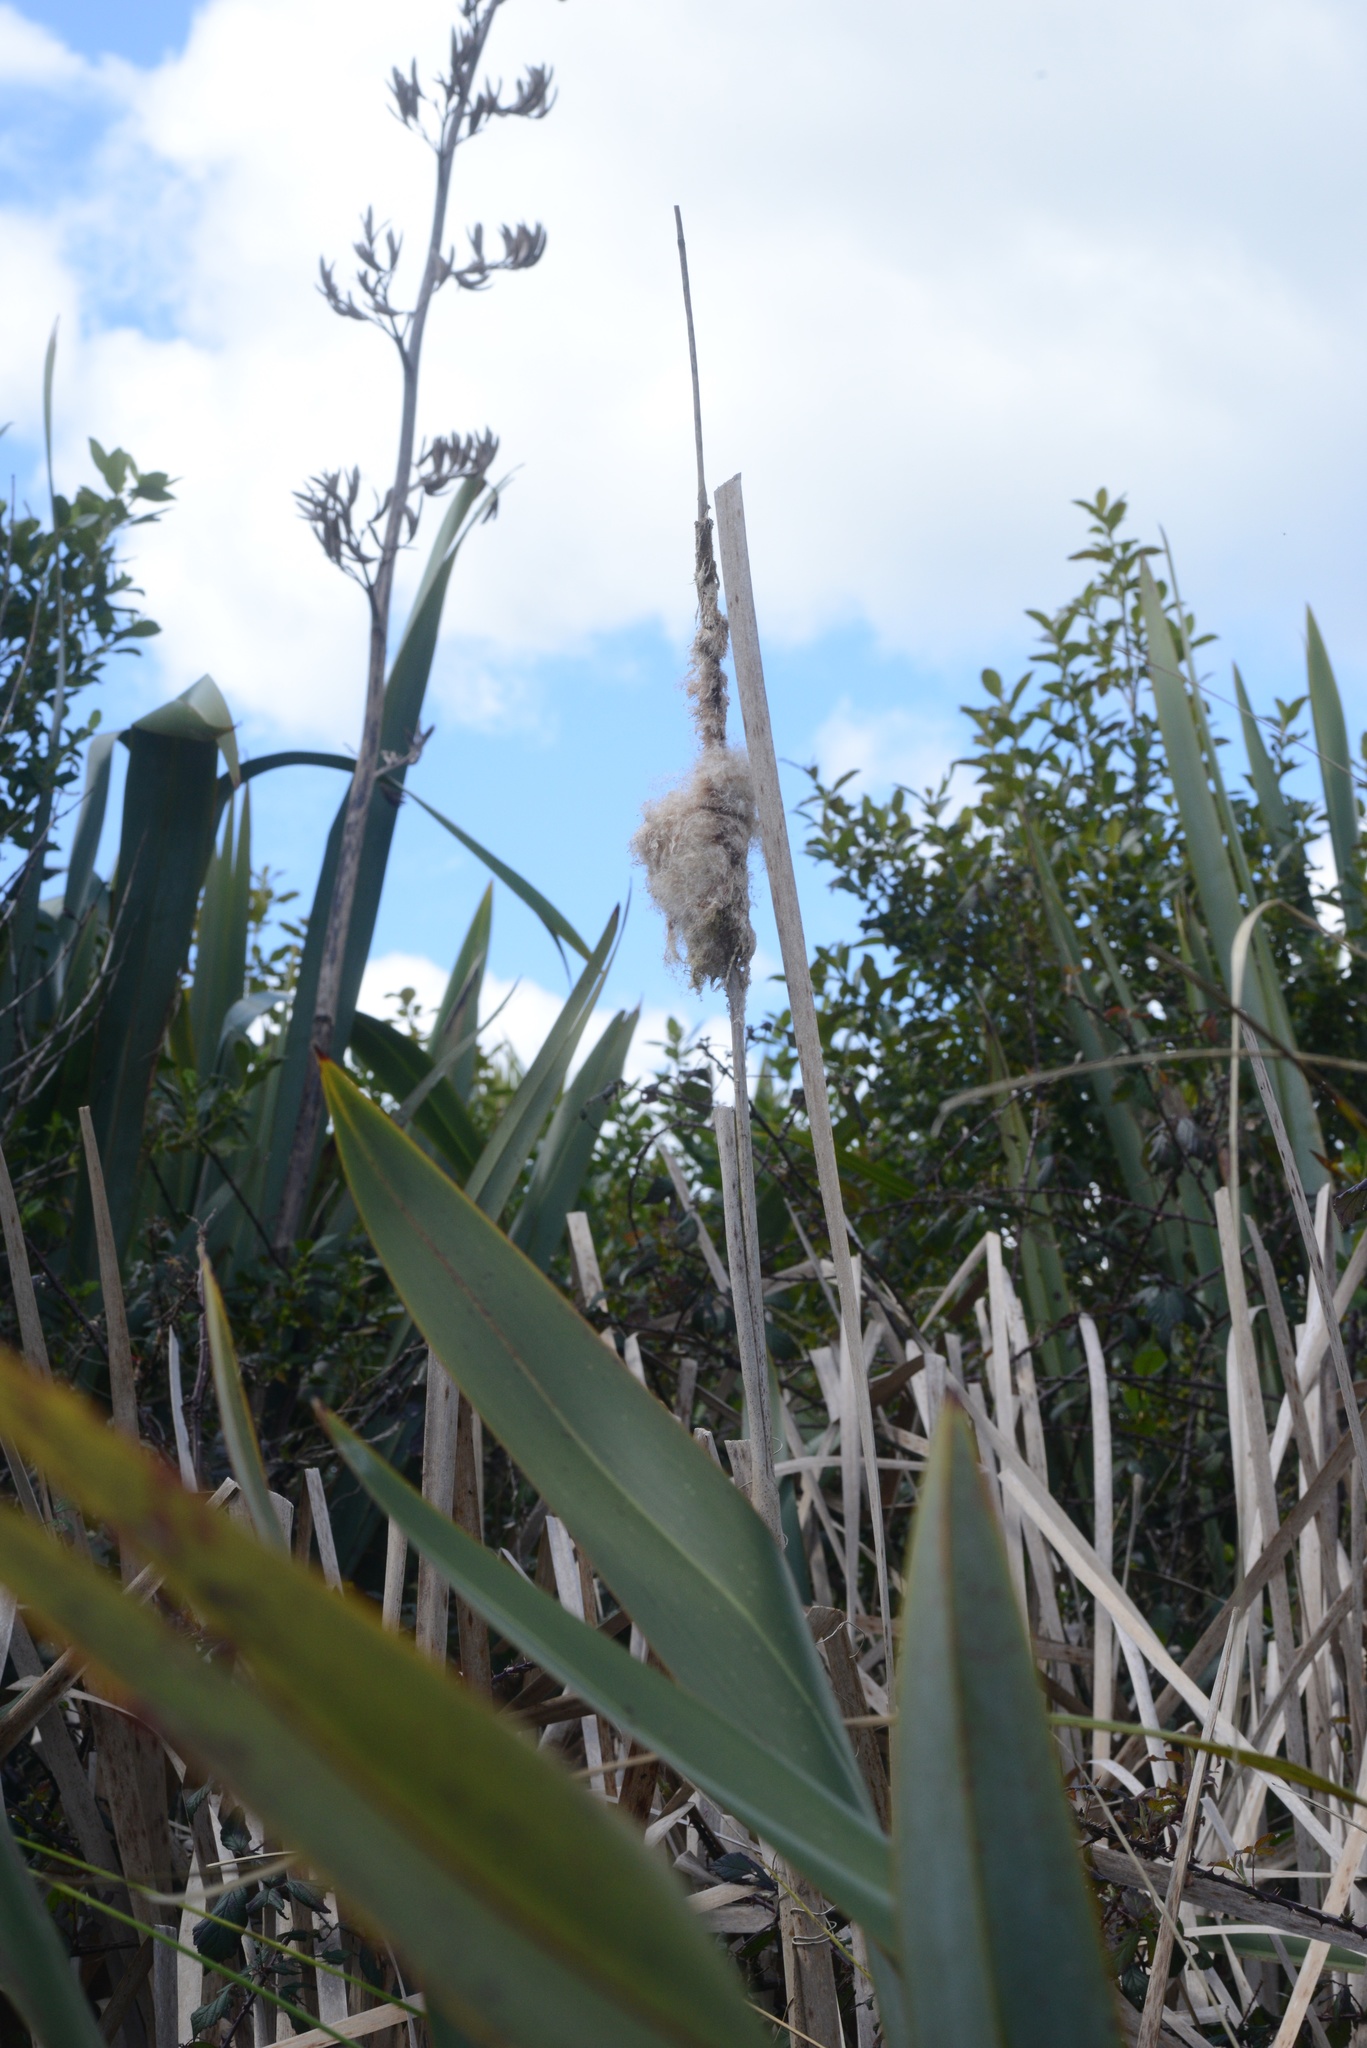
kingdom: Plantae
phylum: Tracheophyta
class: Liliopsida
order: Poales
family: Typhaceae
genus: Typha
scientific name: Typha orientalis
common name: Bullrush
